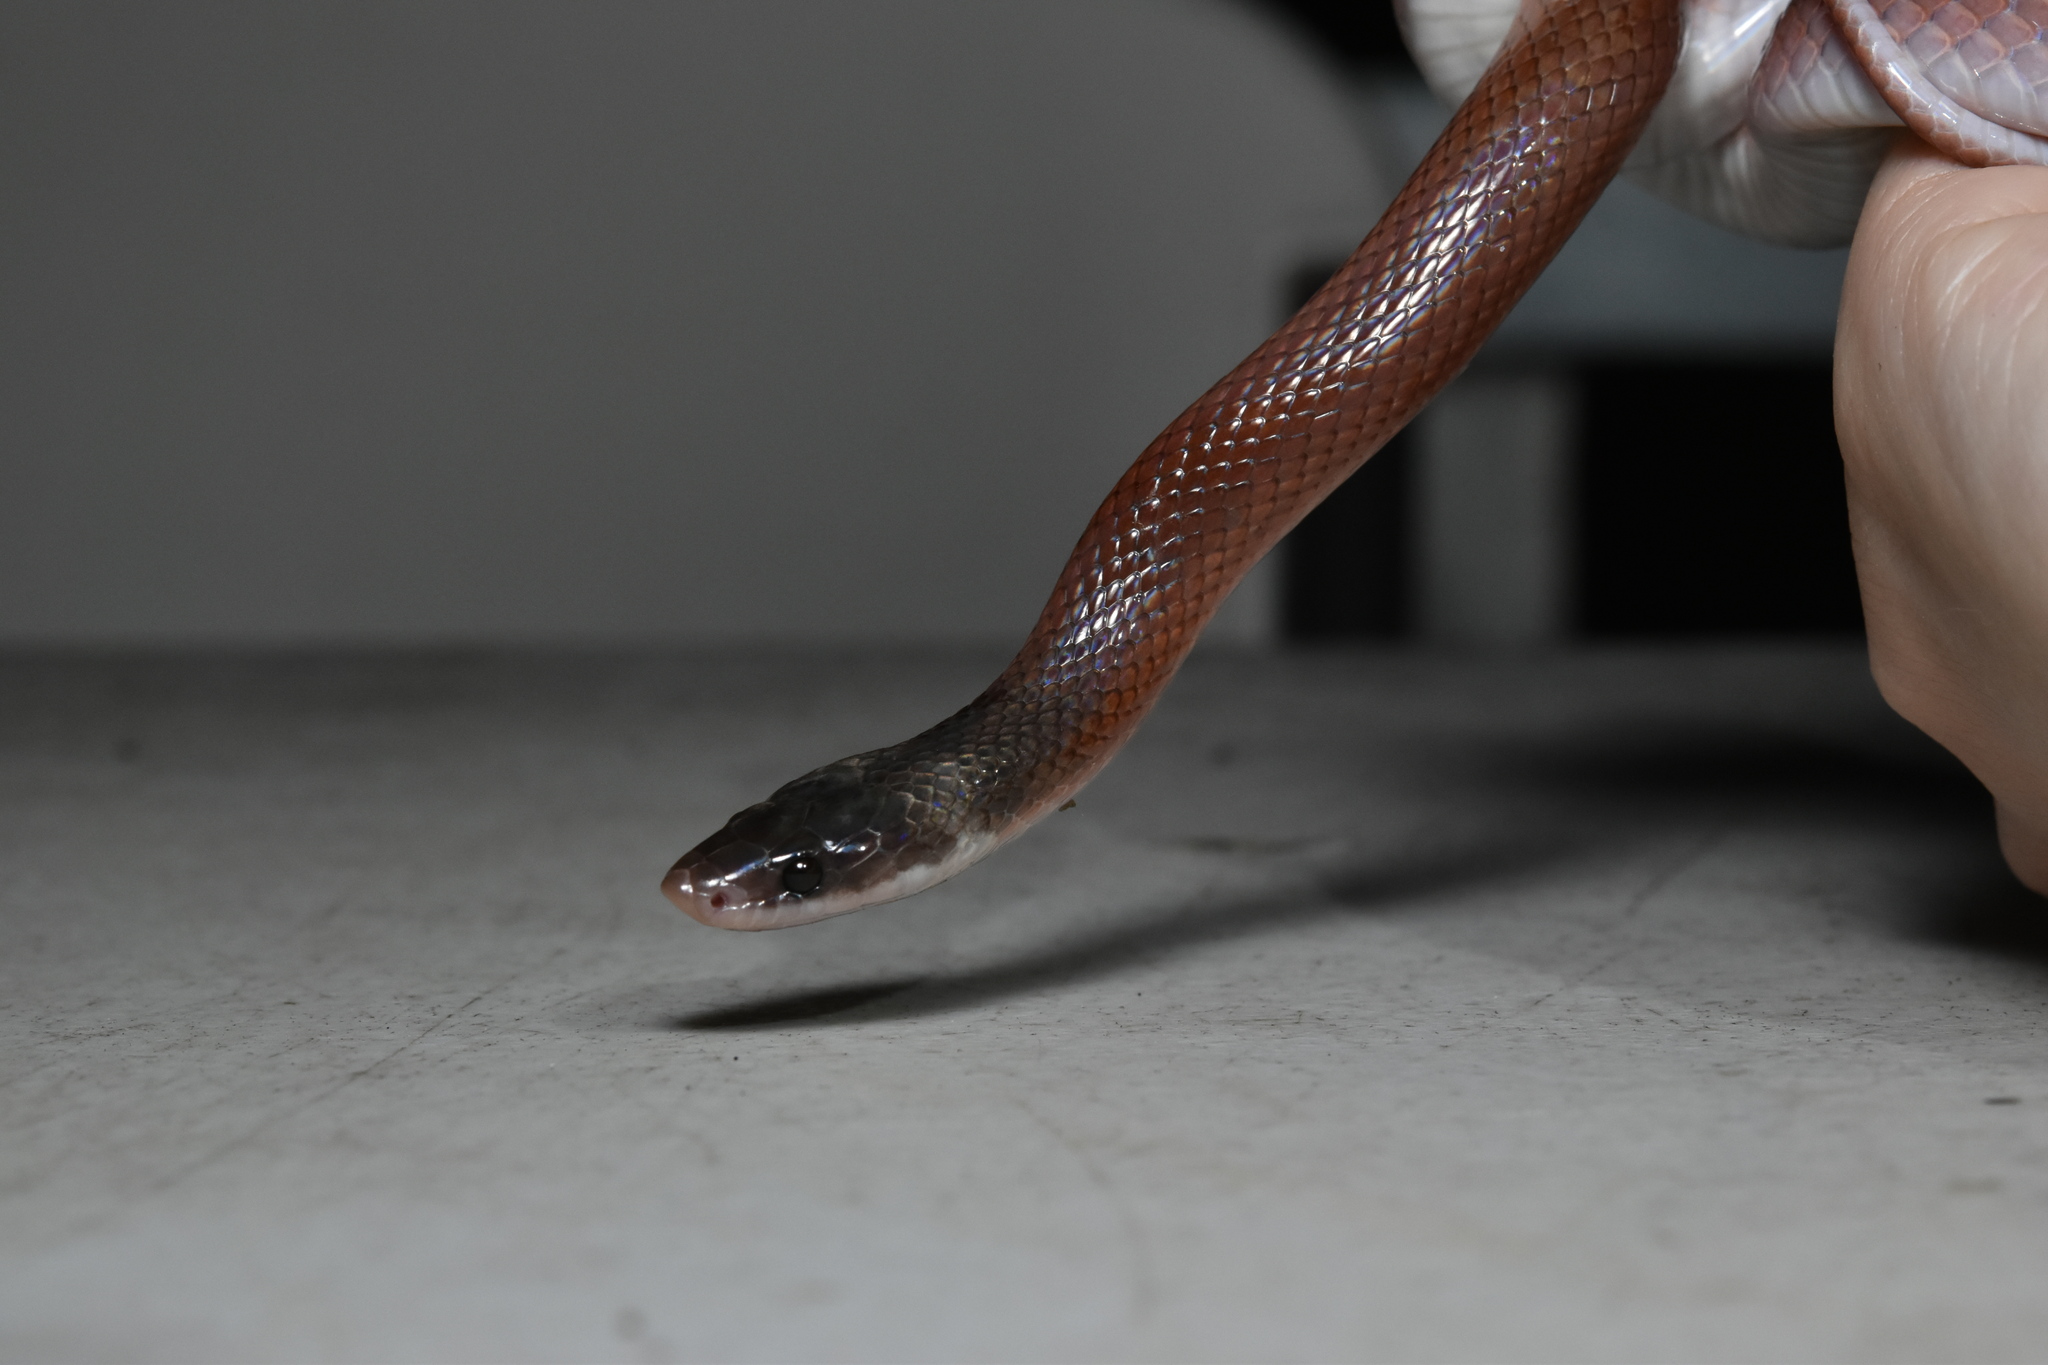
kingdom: Animalia
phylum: Chordata
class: Squamata
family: Colubridae
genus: Pseudoboa
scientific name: Pseudoboa neuwiedii
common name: Neuwied's false boa
